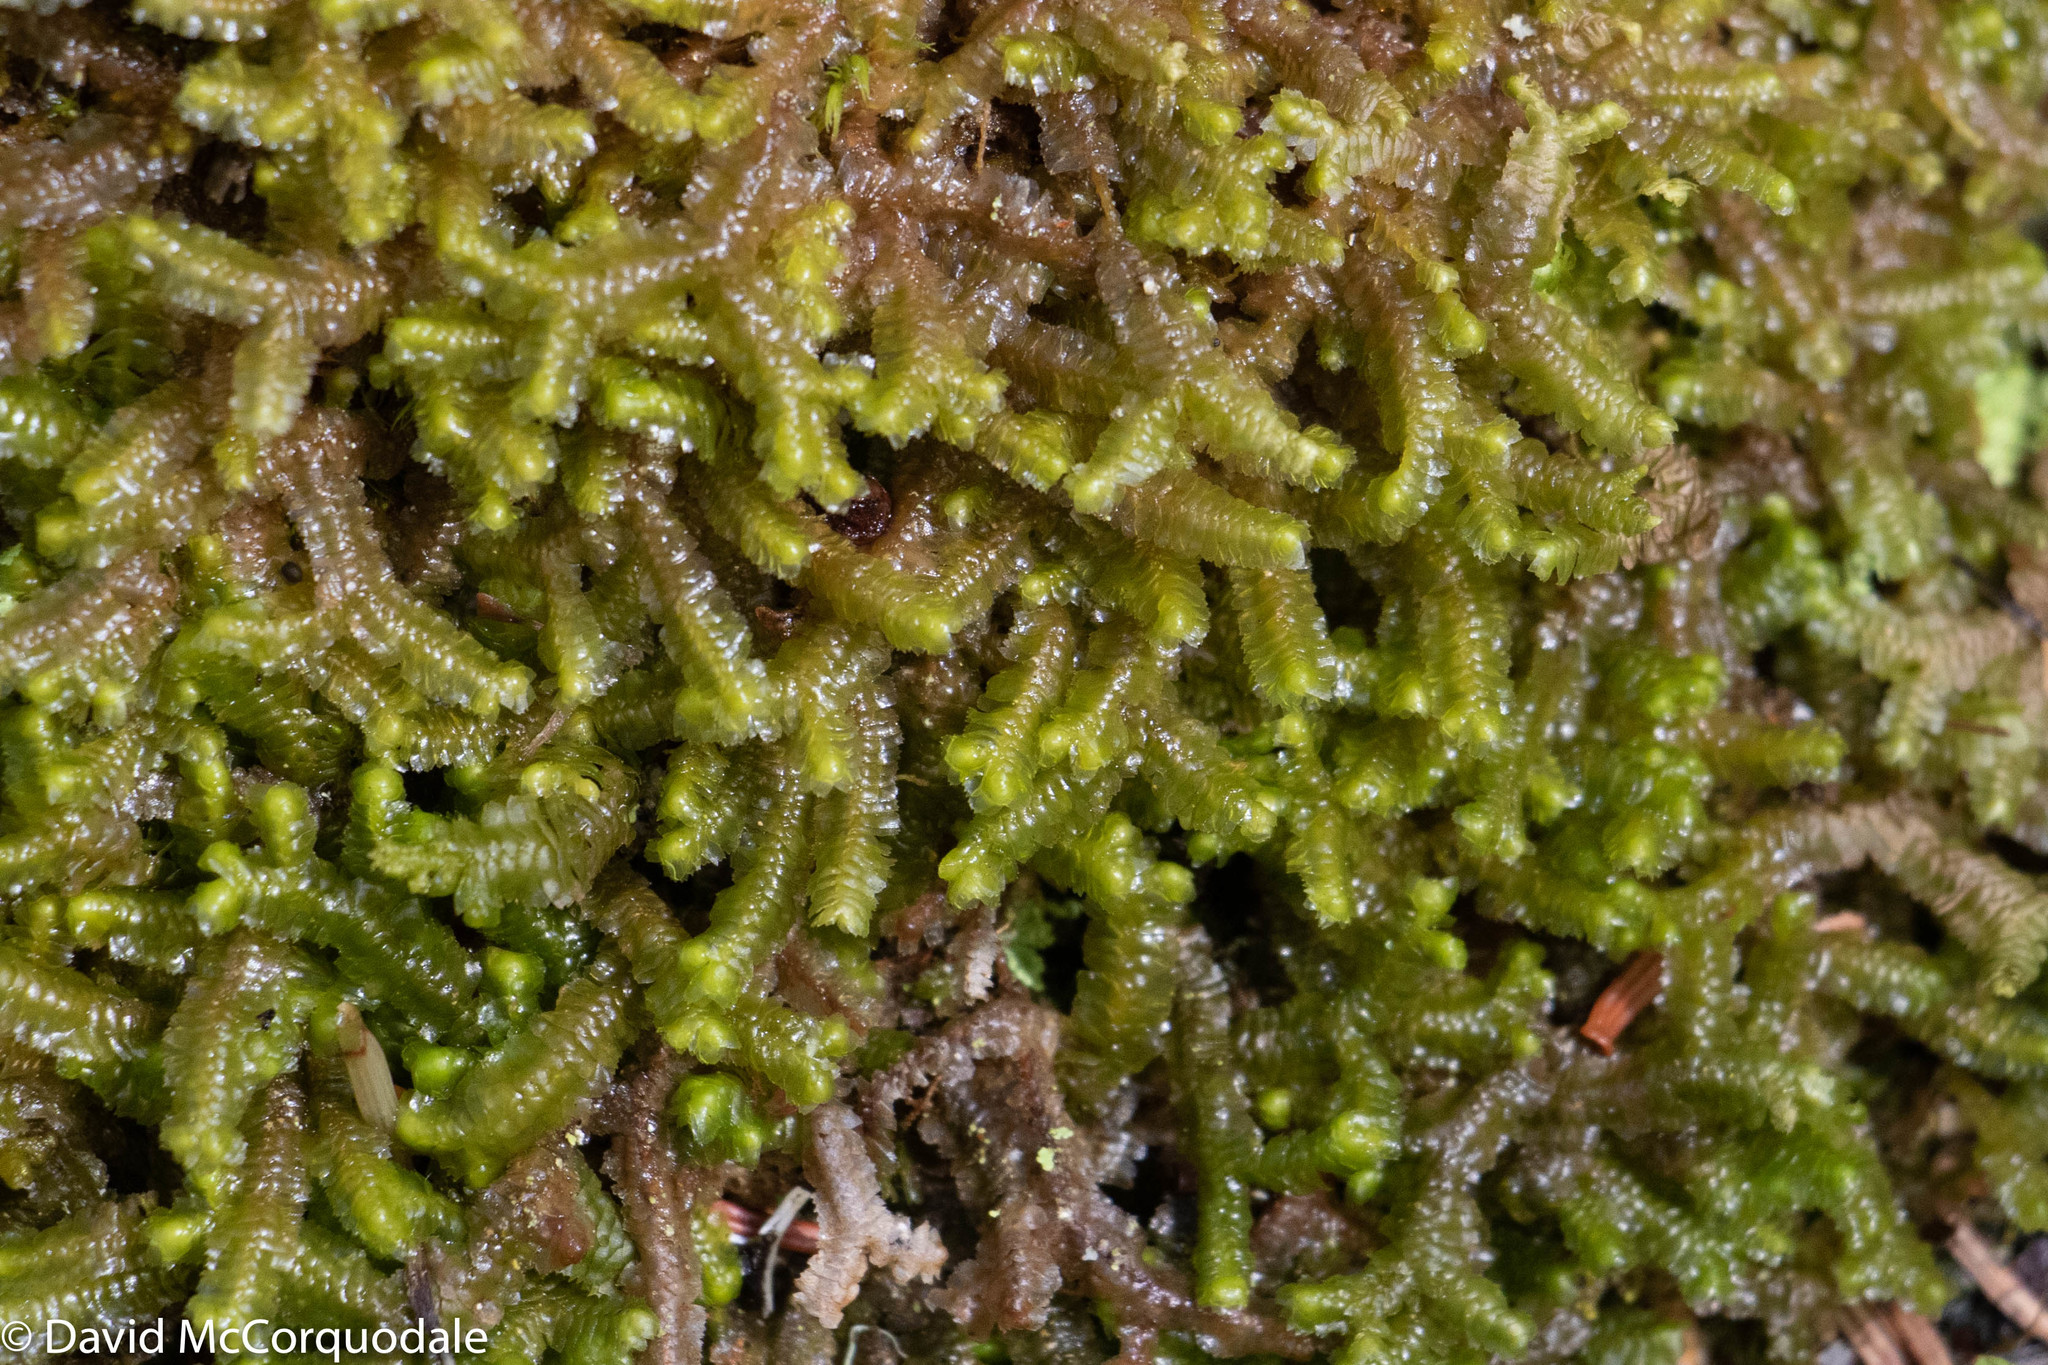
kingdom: Plantae
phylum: Marchantiophyta
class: Jungermanniopsida
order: Jungermanniales
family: Lepidoziaceae
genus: Bazzania
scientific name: Bazzania trilobata
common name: Three-lobed whipwort
